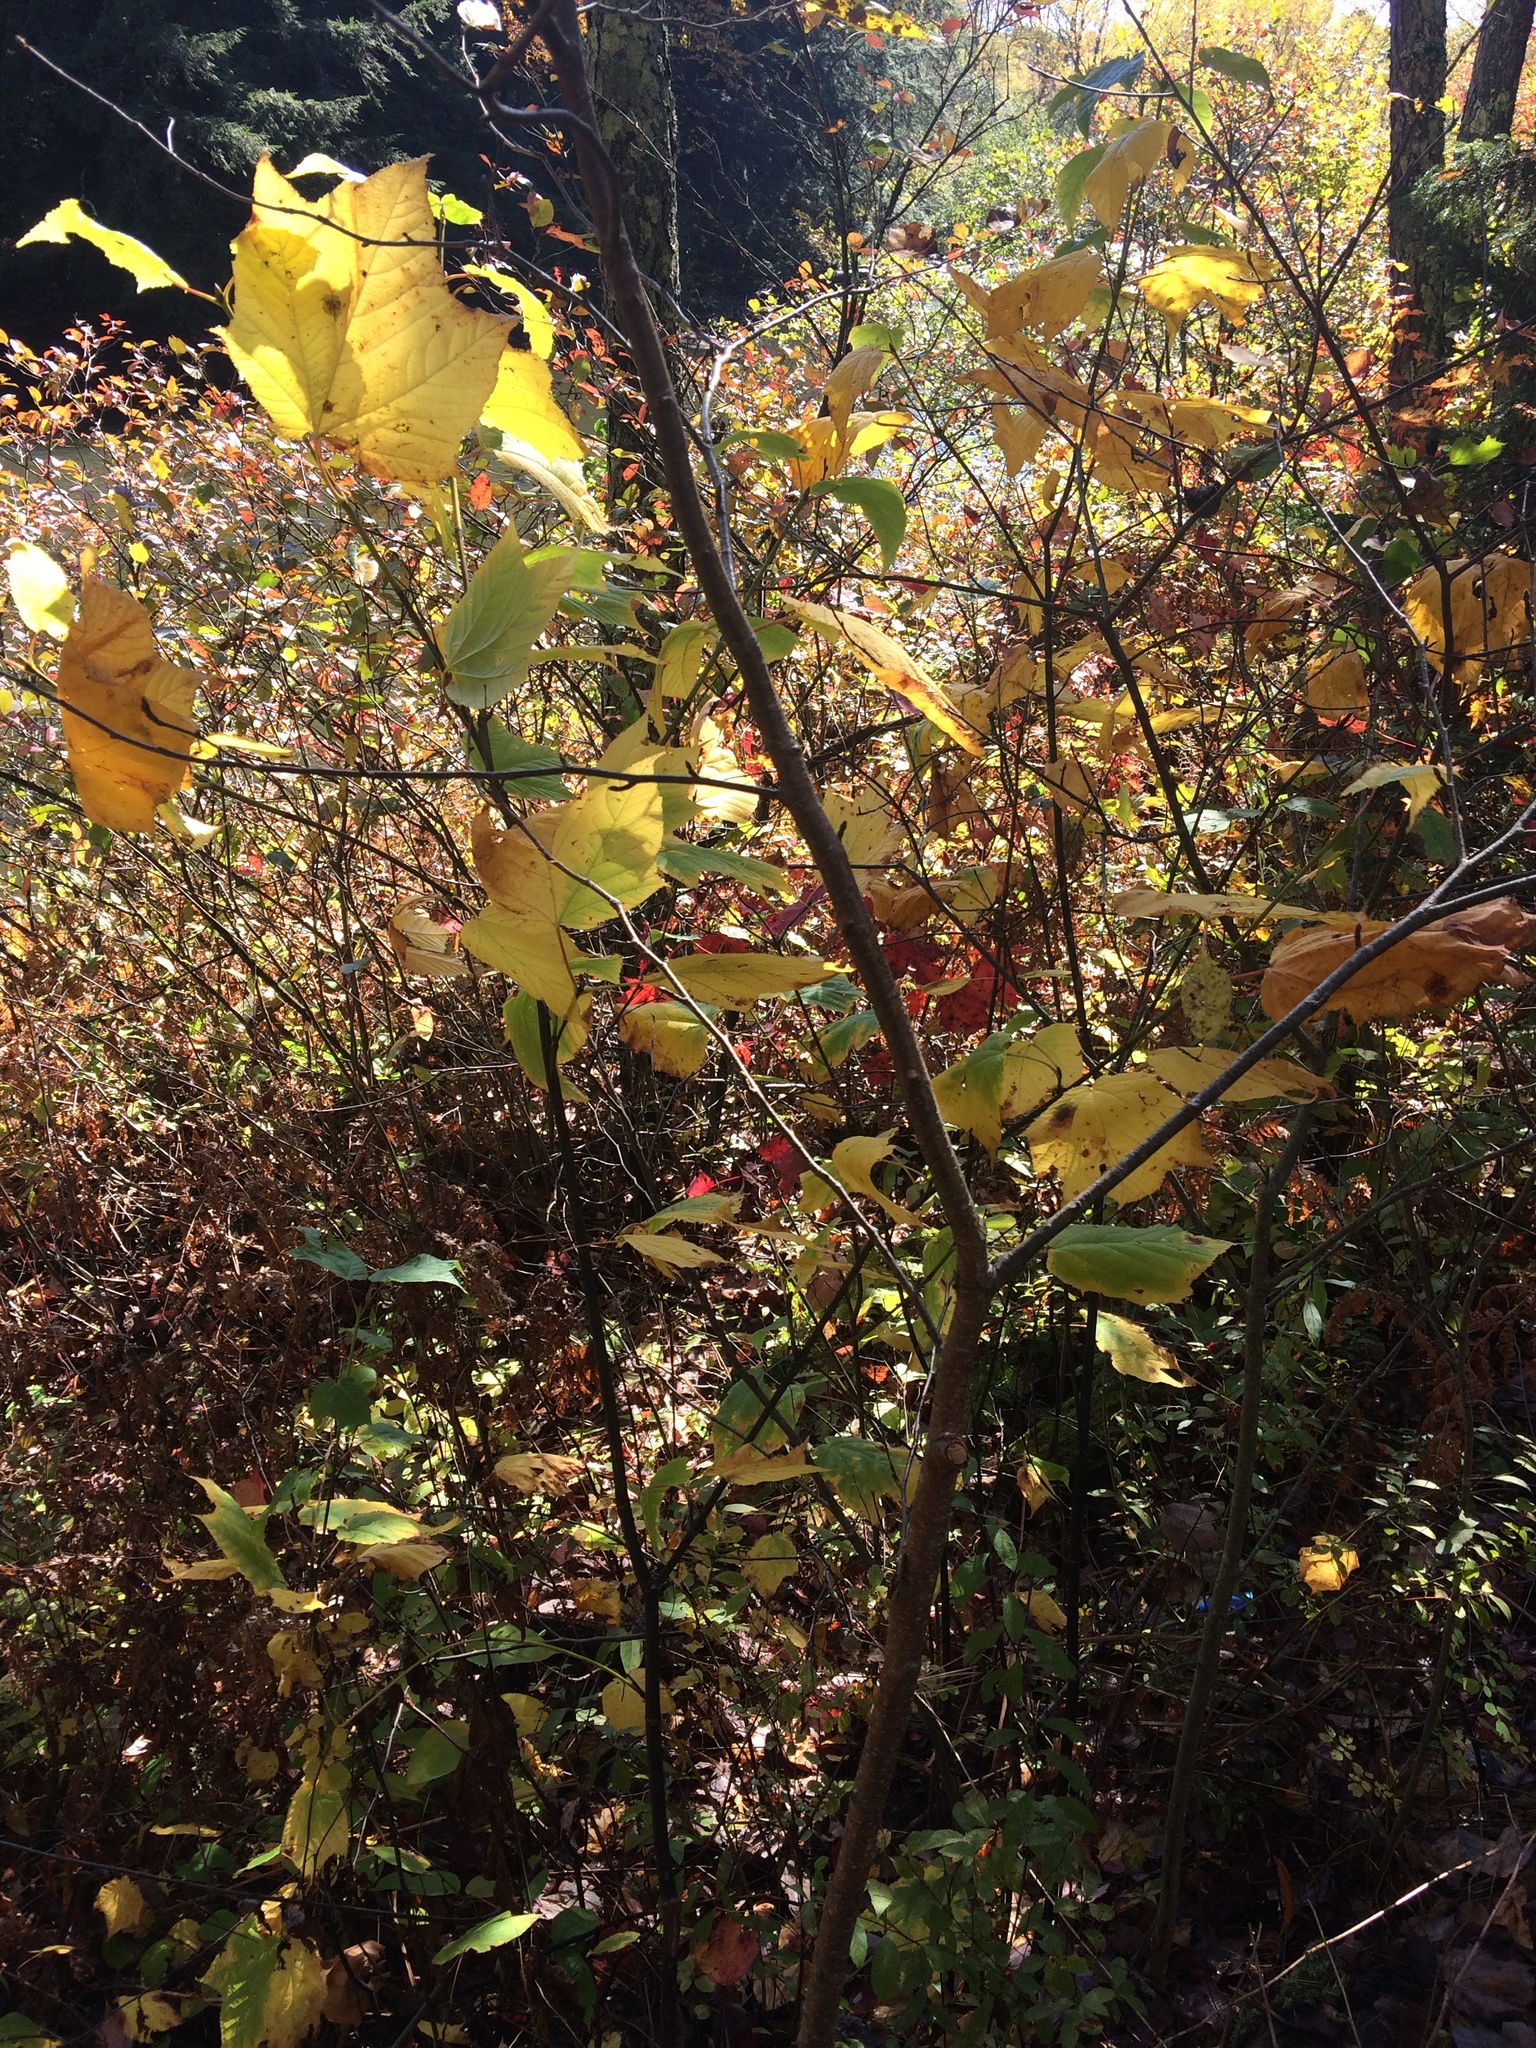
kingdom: Plantae
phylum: Tracheophyta
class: Magnoliopsida
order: Sapindales
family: Sapindaceae
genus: Acer
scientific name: Acer pensylvanicum
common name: Moosewood
